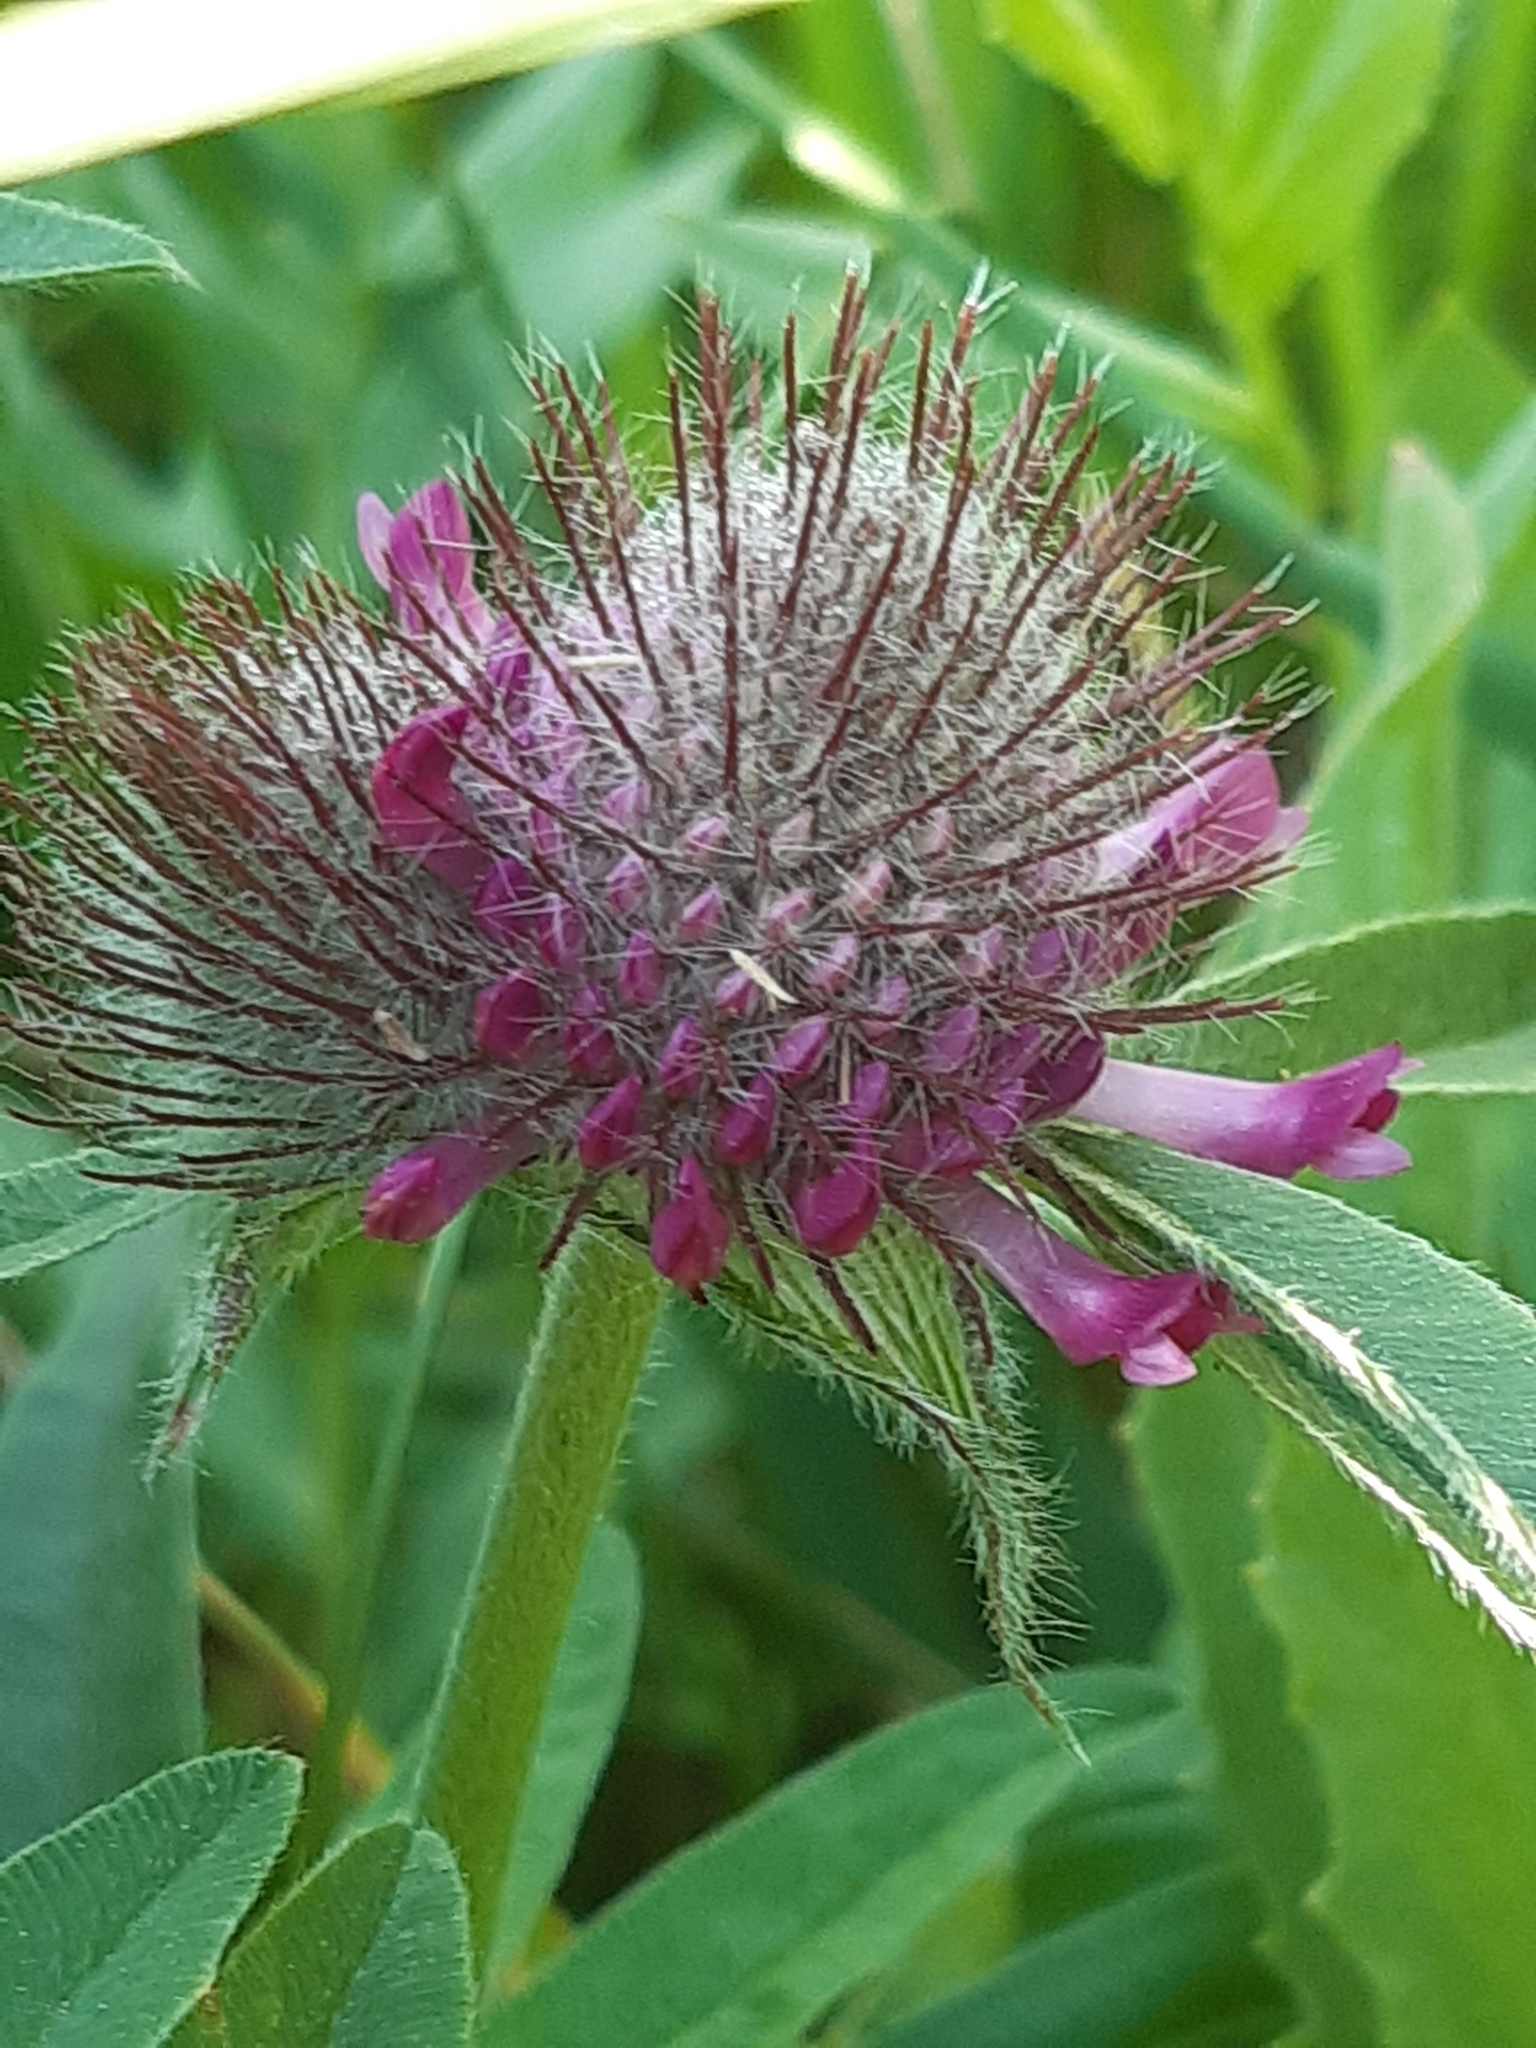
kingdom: Plantae
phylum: Tracheophyta
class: Magnoliopsida
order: Fabales
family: Fabaceae
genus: Trifolium
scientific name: Trifolium alpestre
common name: Owl-head clover
